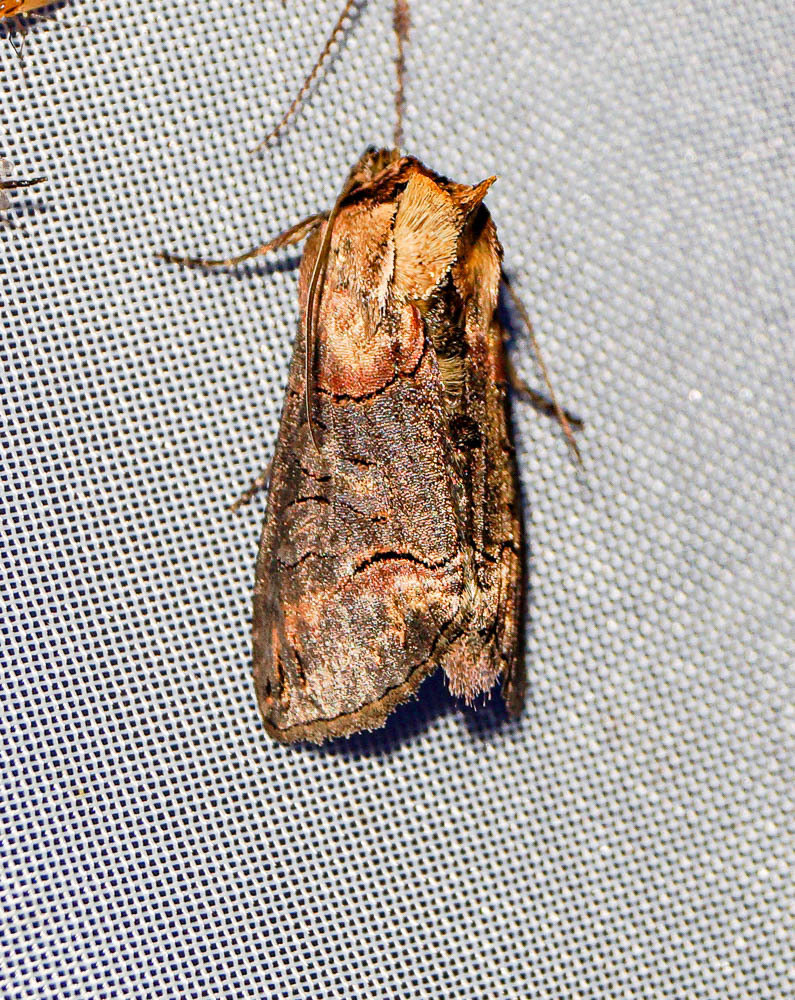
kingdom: Animalia
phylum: Arthropoda
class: Insecta
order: Lepidoptera
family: Noctuidae
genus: Abrostola
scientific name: Abrostola tripartita
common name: Spectacle
